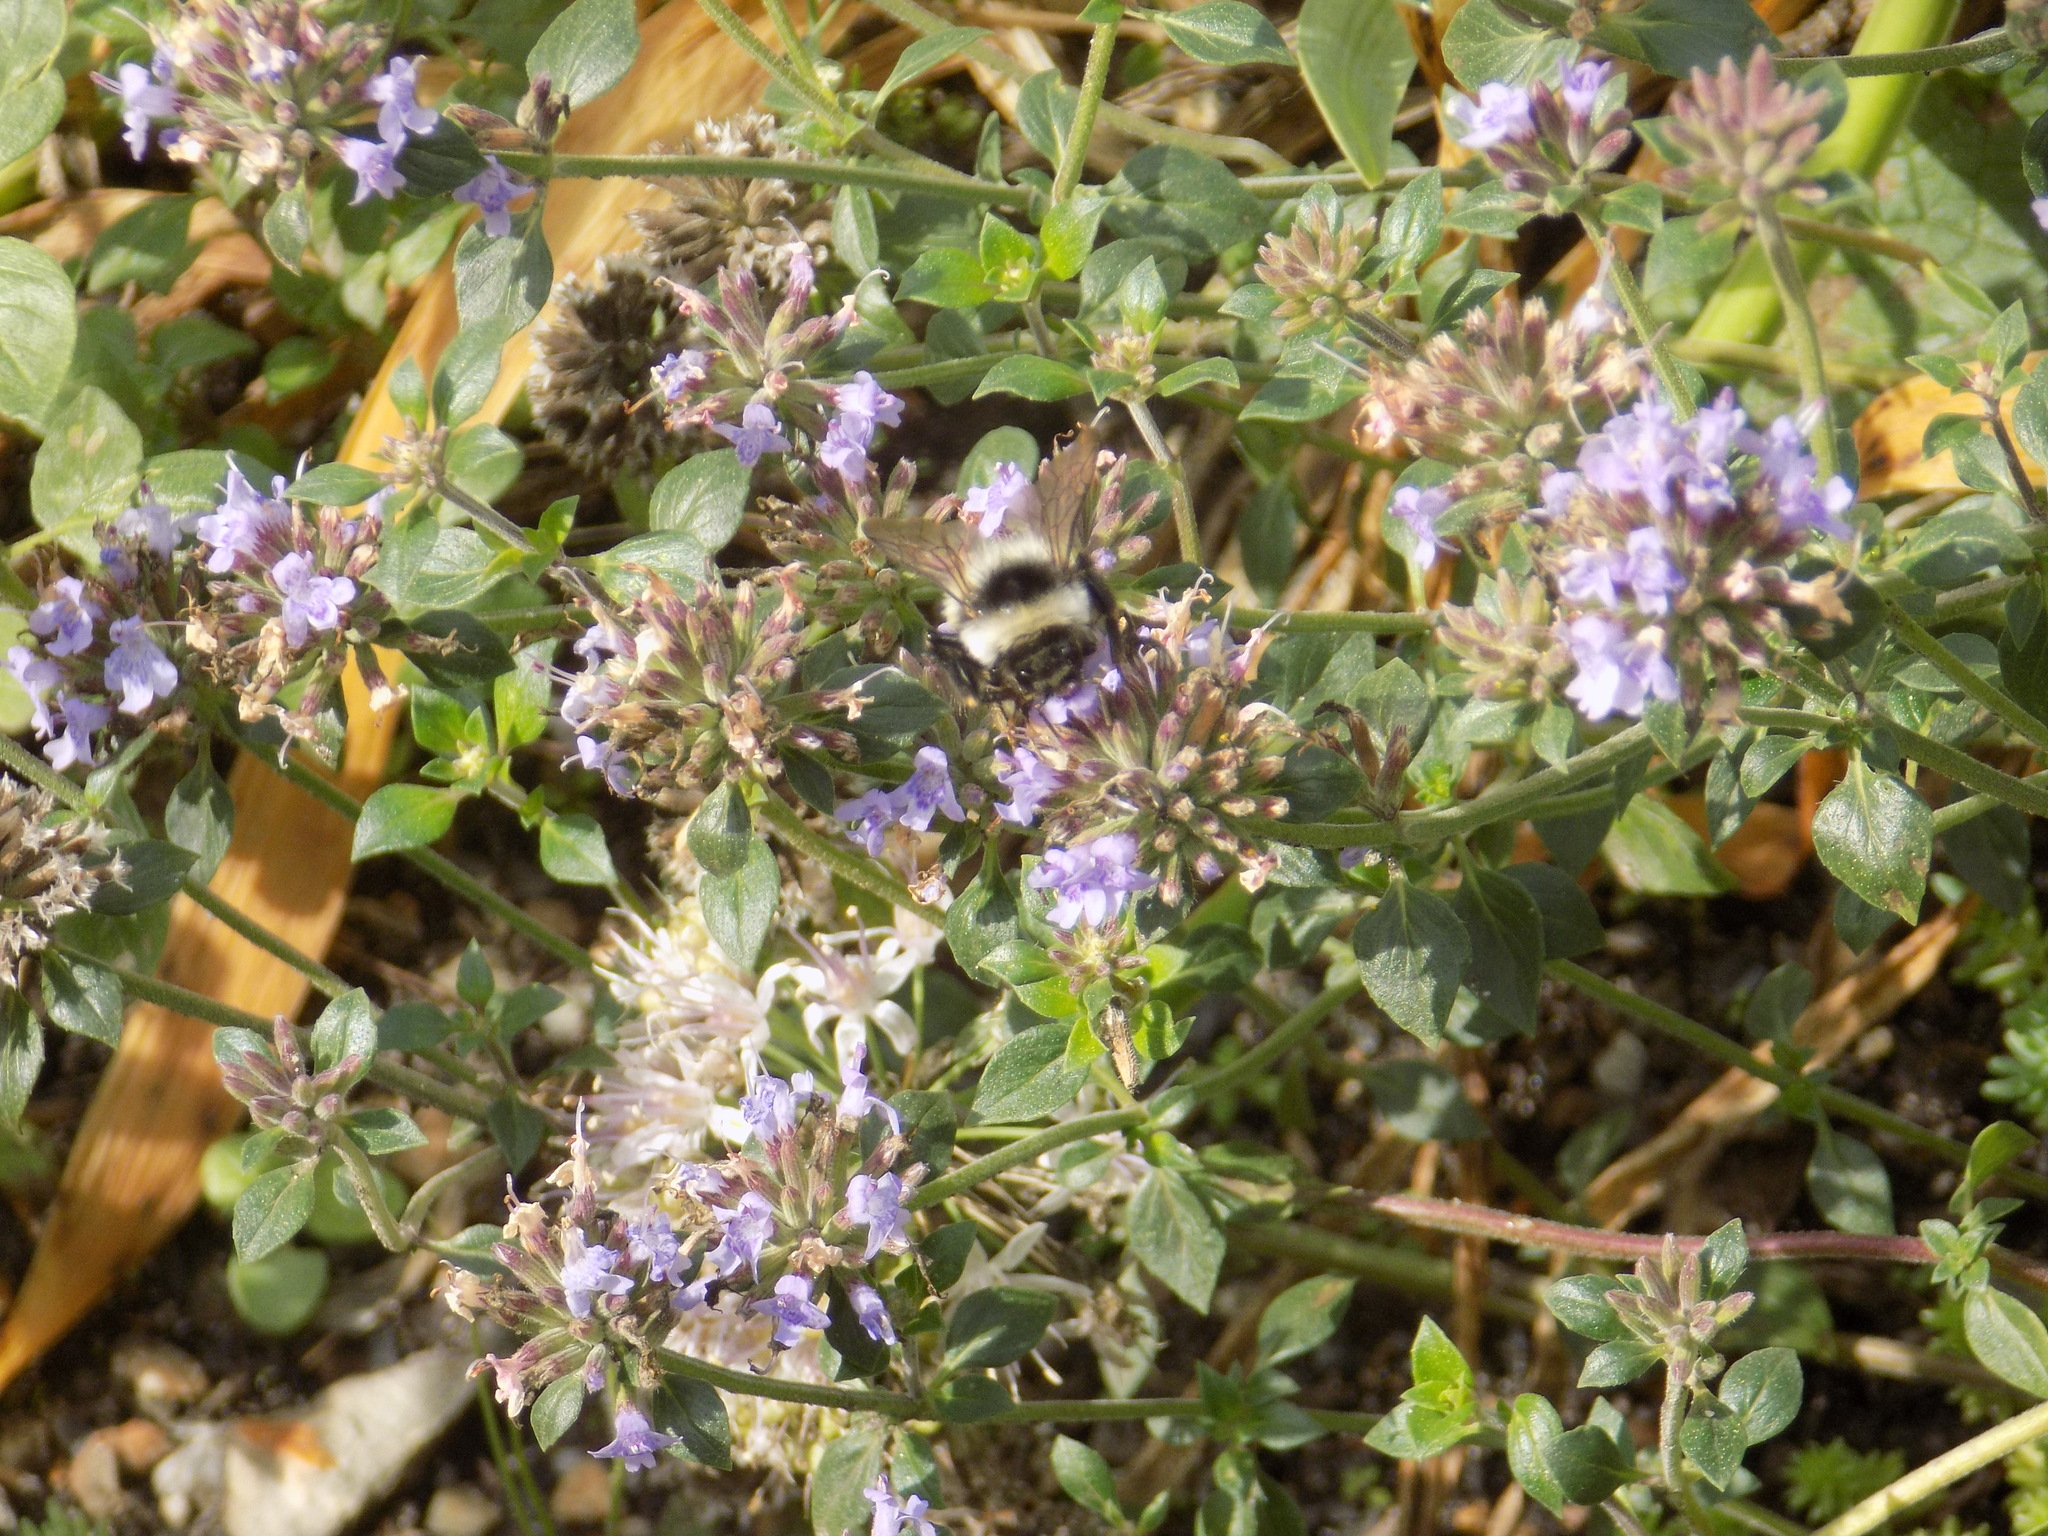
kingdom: Animalia
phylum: Arthropoda
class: Insecta
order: Hymenoptera
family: Apidae
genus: Bombus
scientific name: Bombus patagiatus
